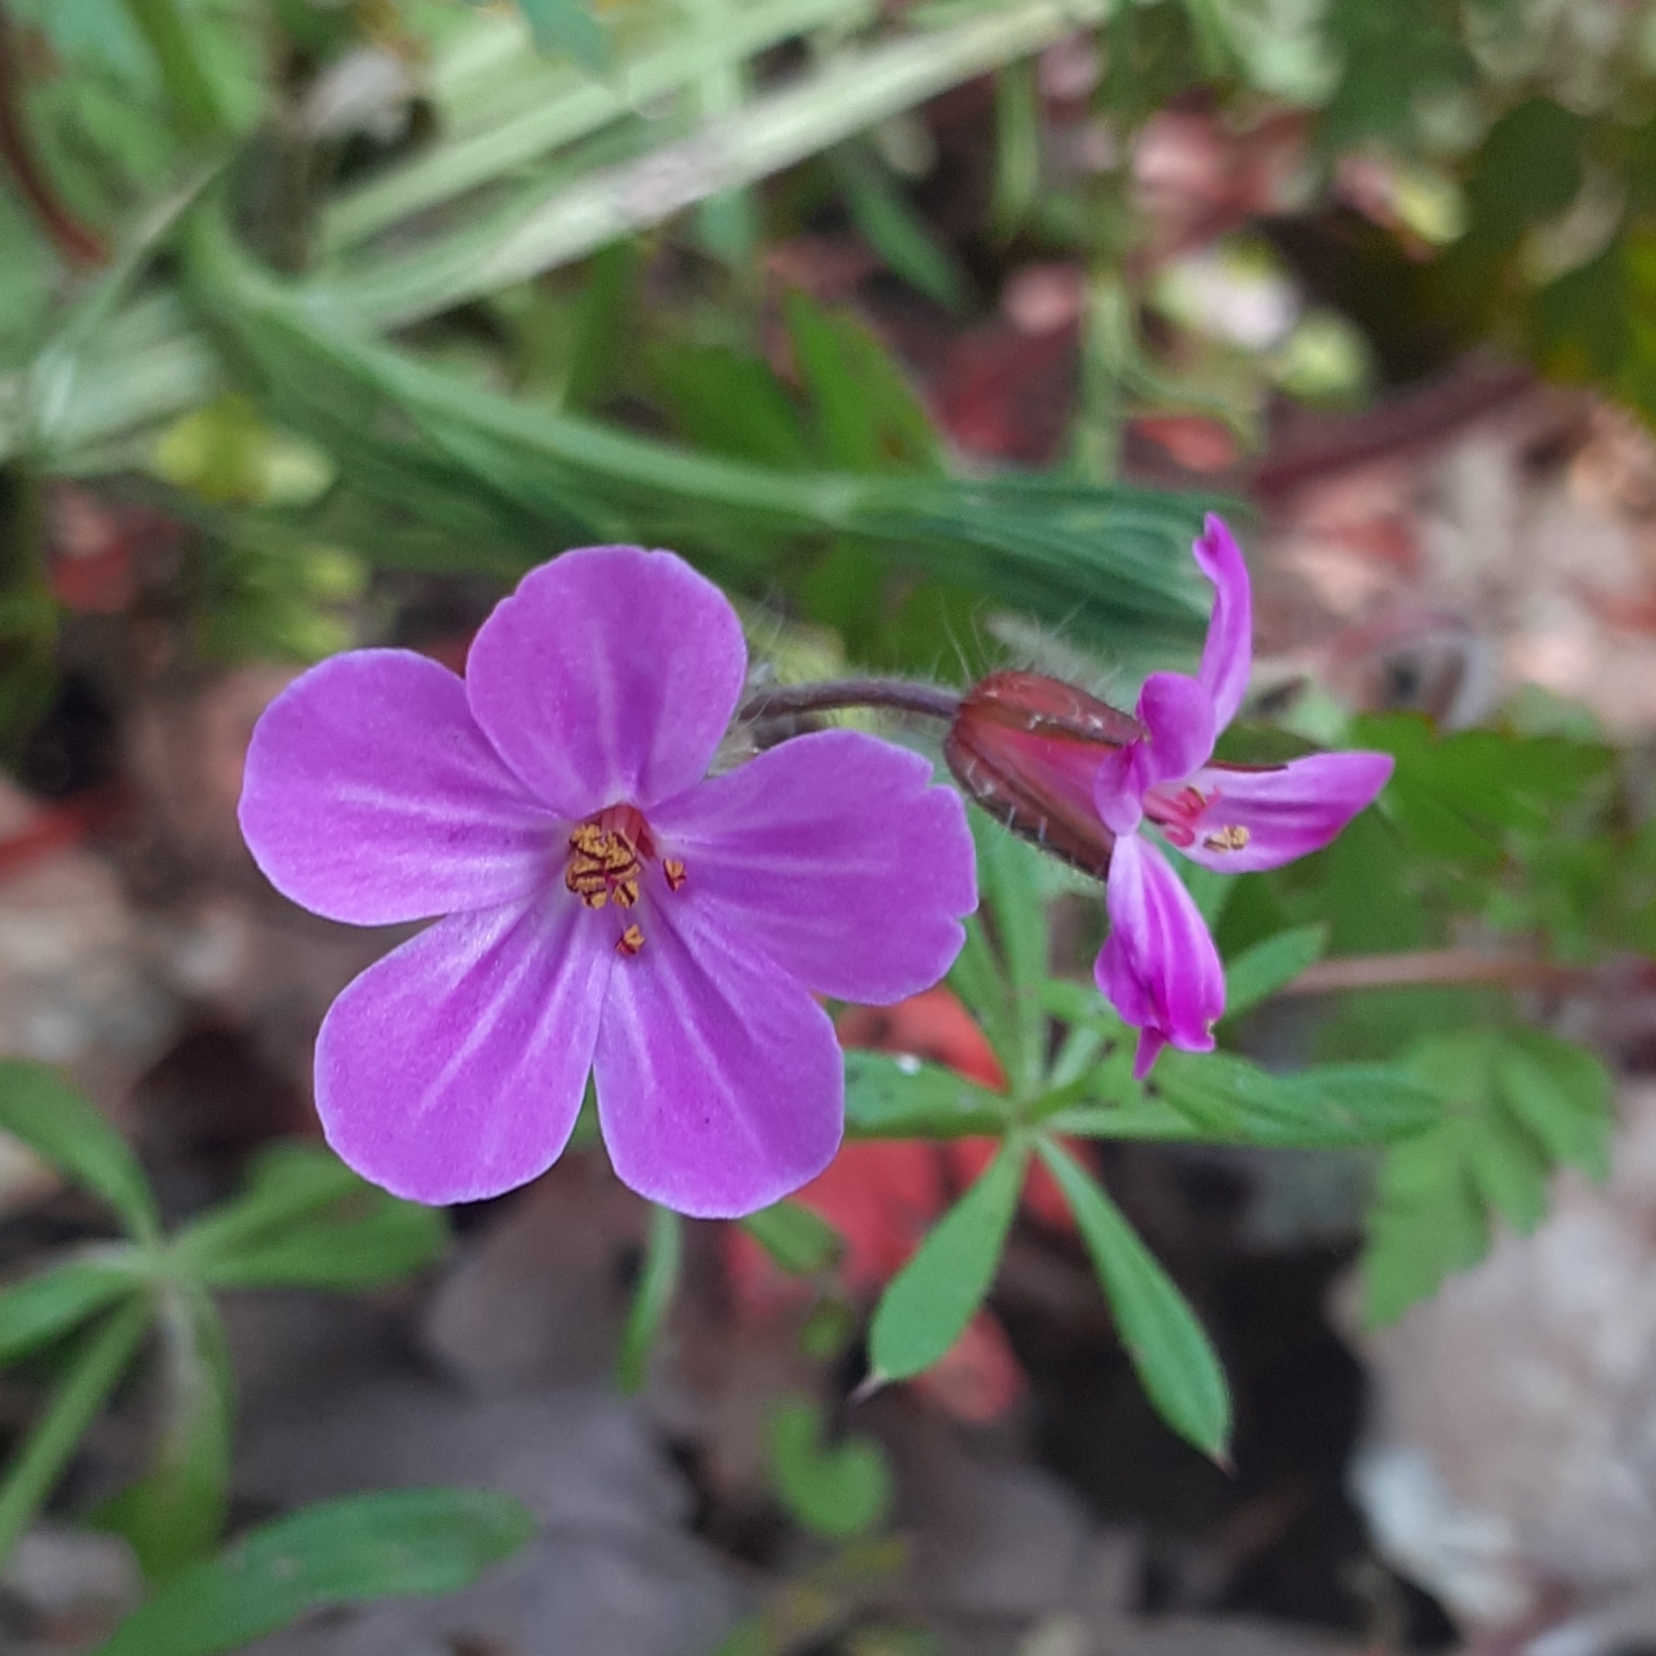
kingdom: Plantae
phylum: Tracheophyta
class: Magnoliopsida
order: Geraniales
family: Geraniaceae
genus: Geranium
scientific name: Geranium robertianum
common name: Herb-robert
